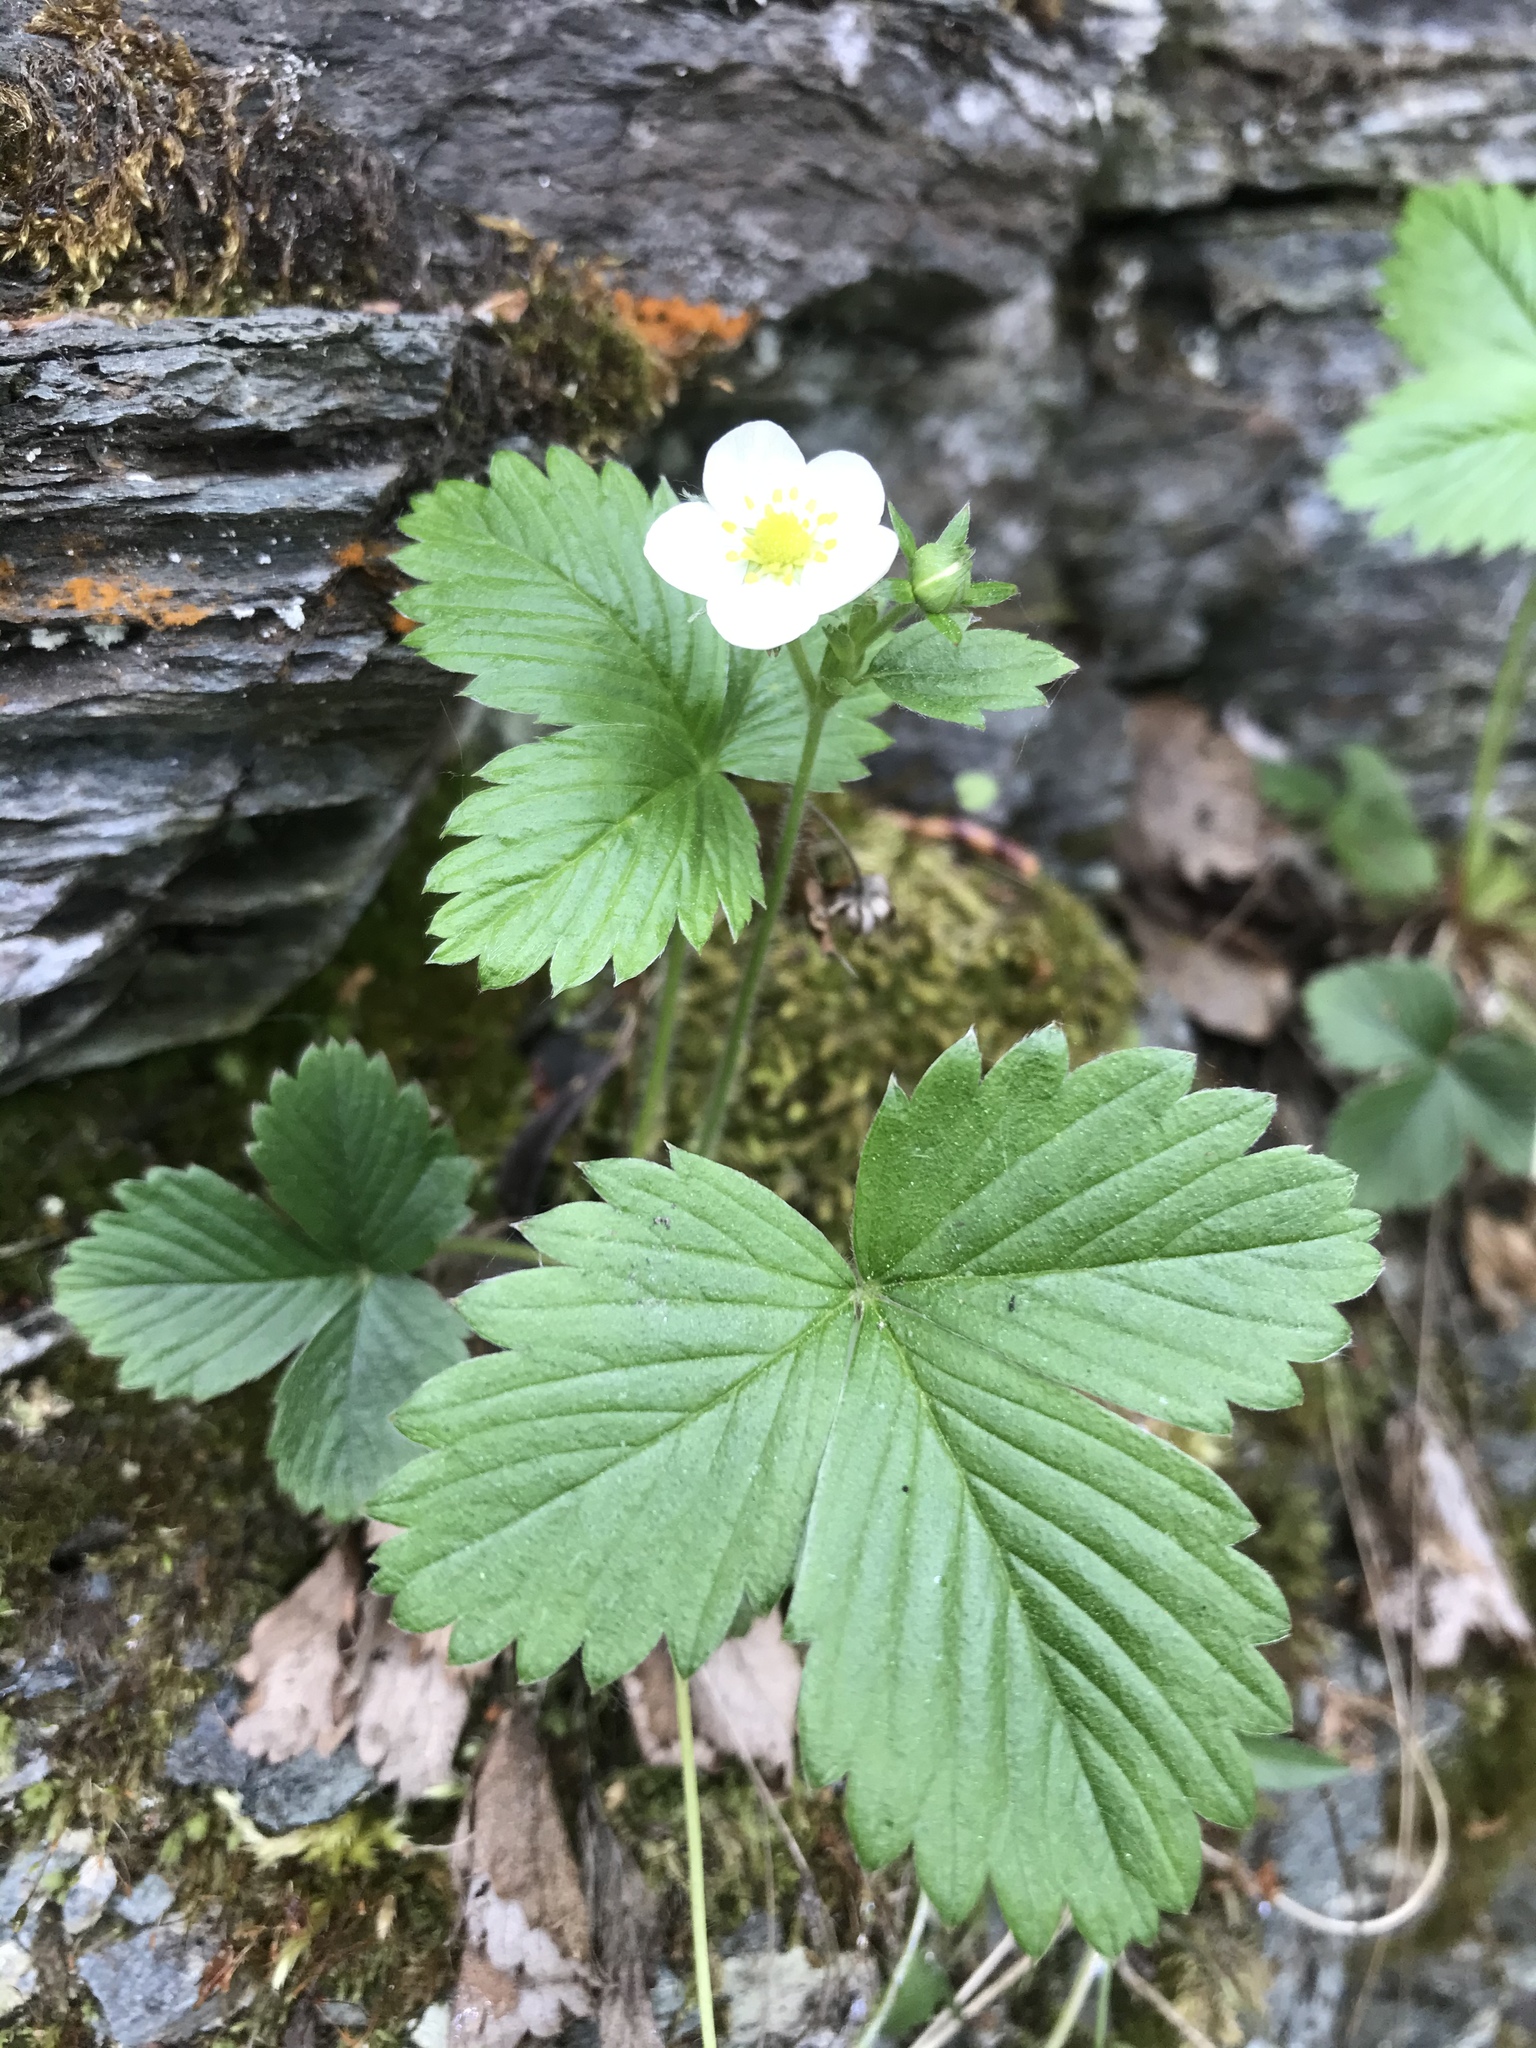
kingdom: Plantae
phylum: Tracheophyta
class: Magnoliopsida
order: Rosales
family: Rosaceae
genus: Fragaria
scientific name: Fragaria vesca
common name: Wild strawberry
